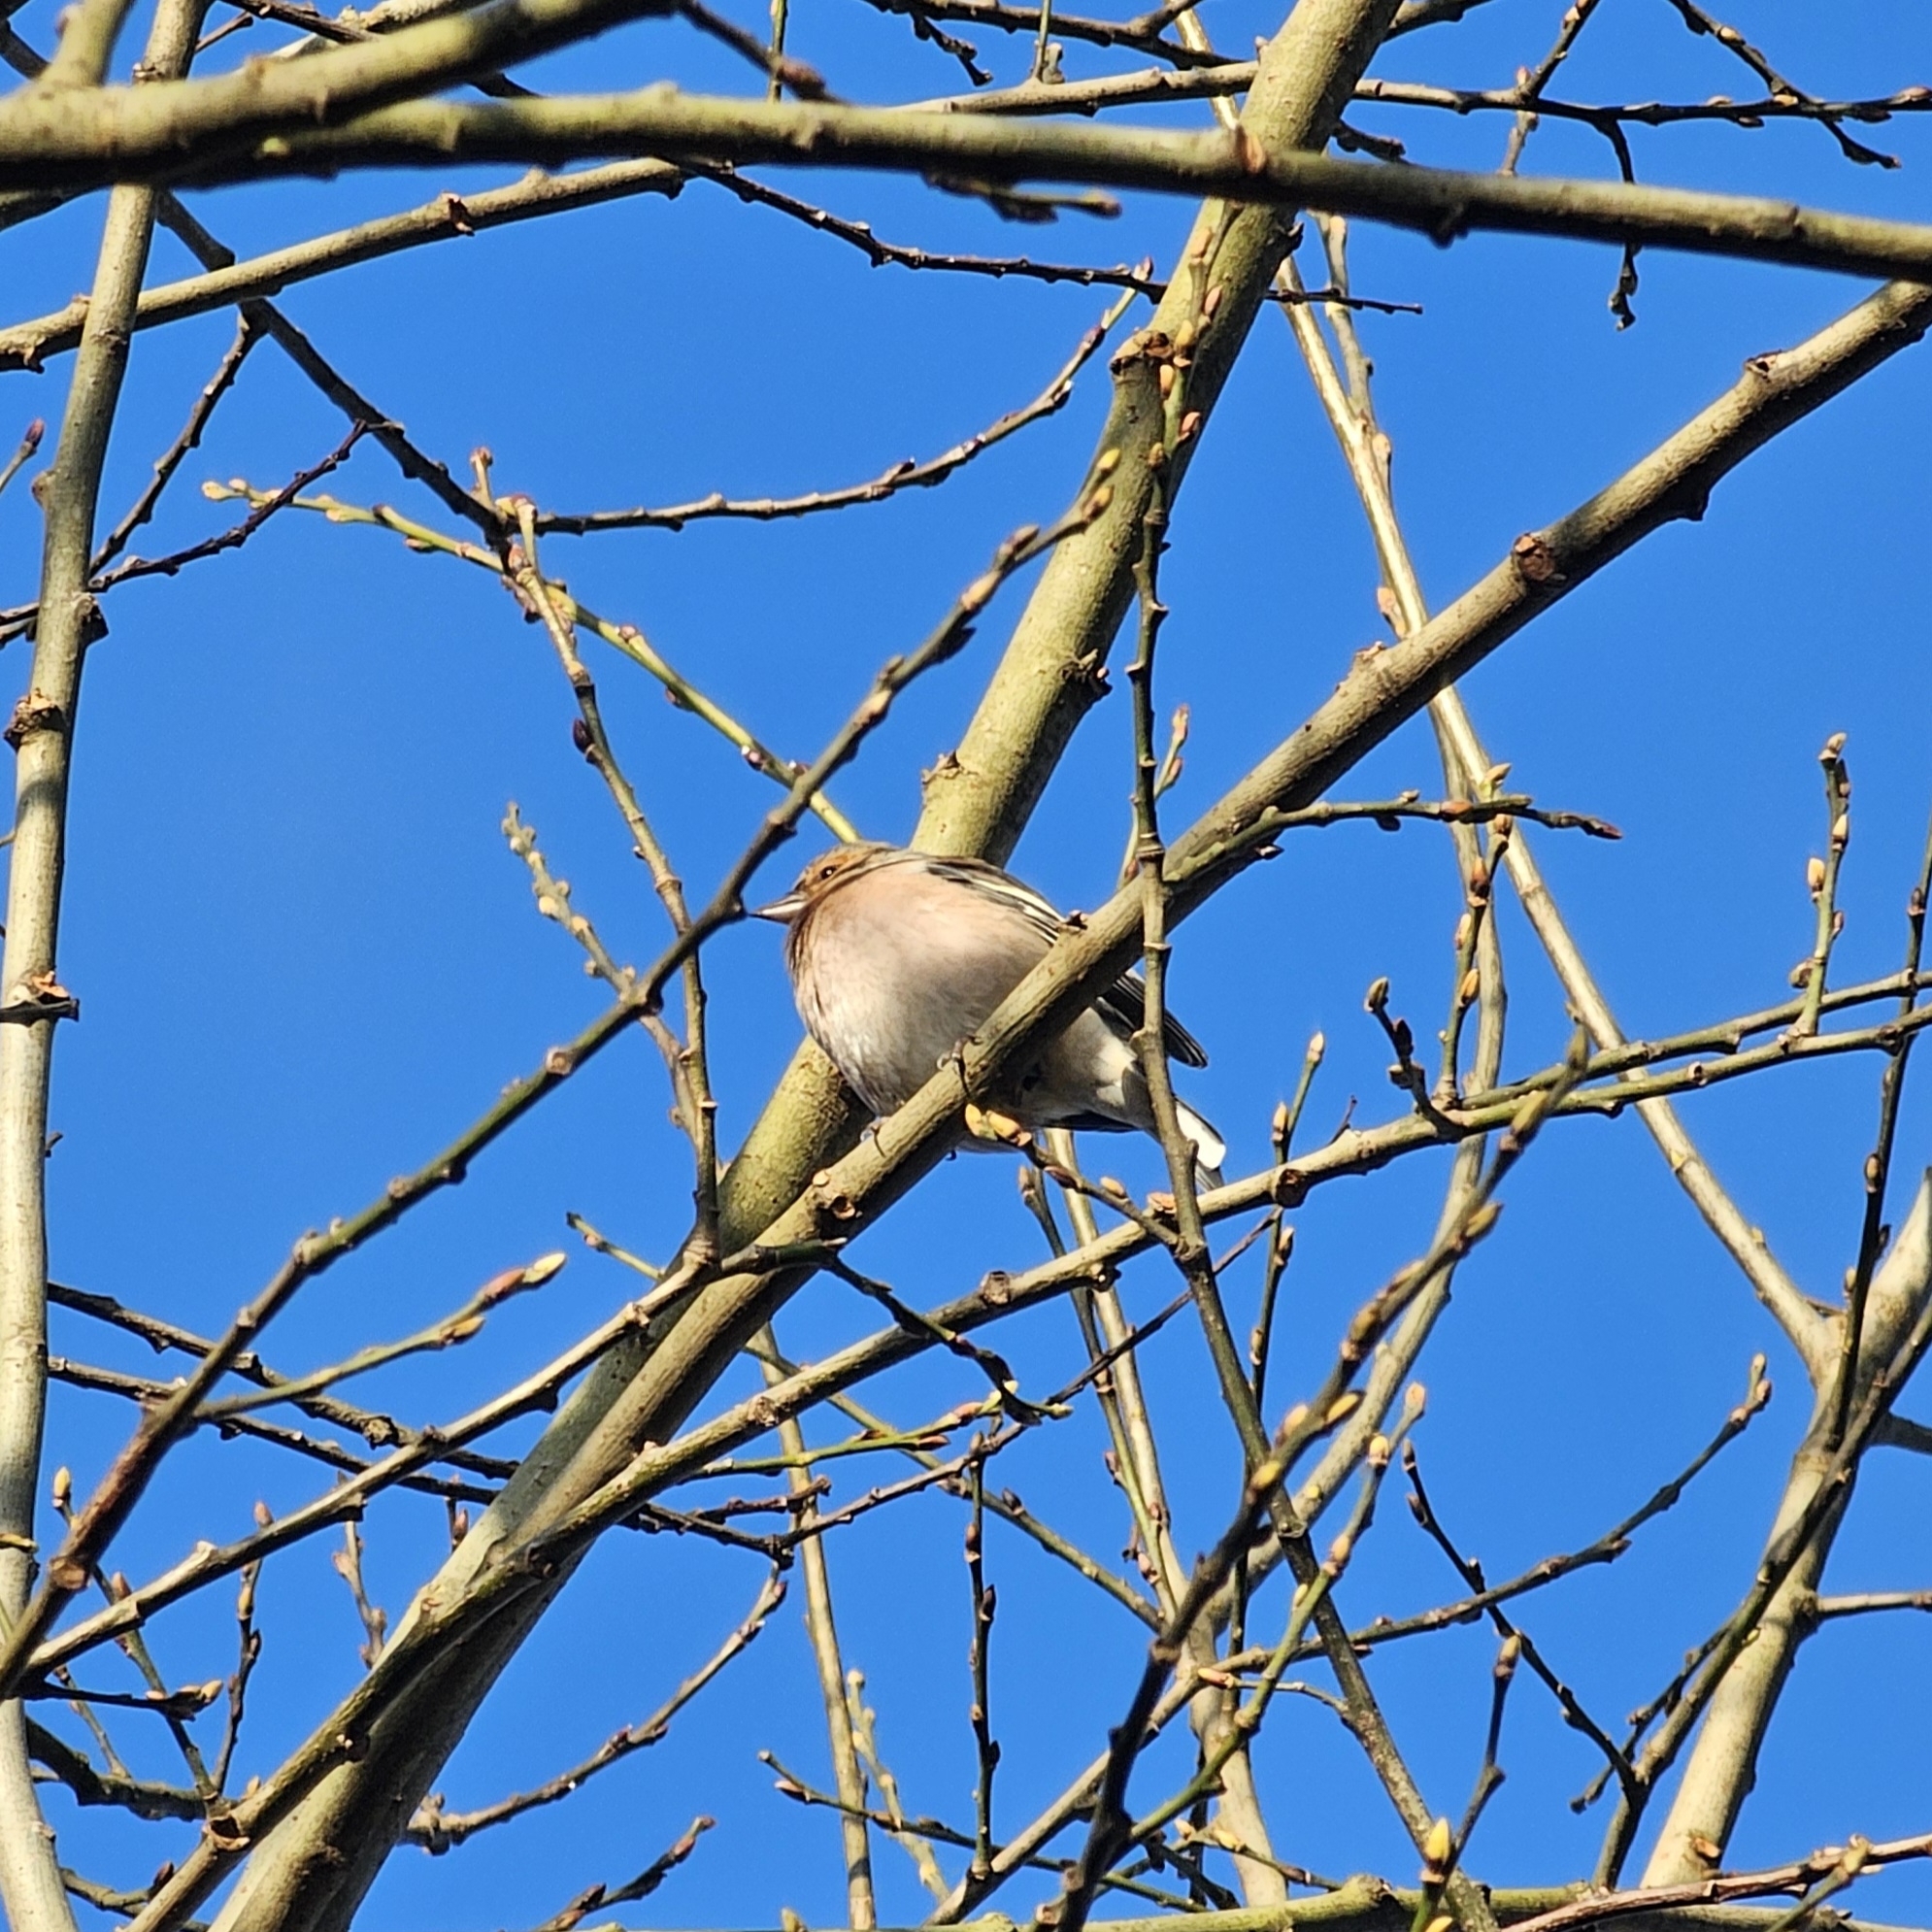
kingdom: Animalia
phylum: Chordata
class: Aves
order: Passeriformes
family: Fringillidae
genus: Fringilla
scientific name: Fringilla coelebs
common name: Common chaffinch
